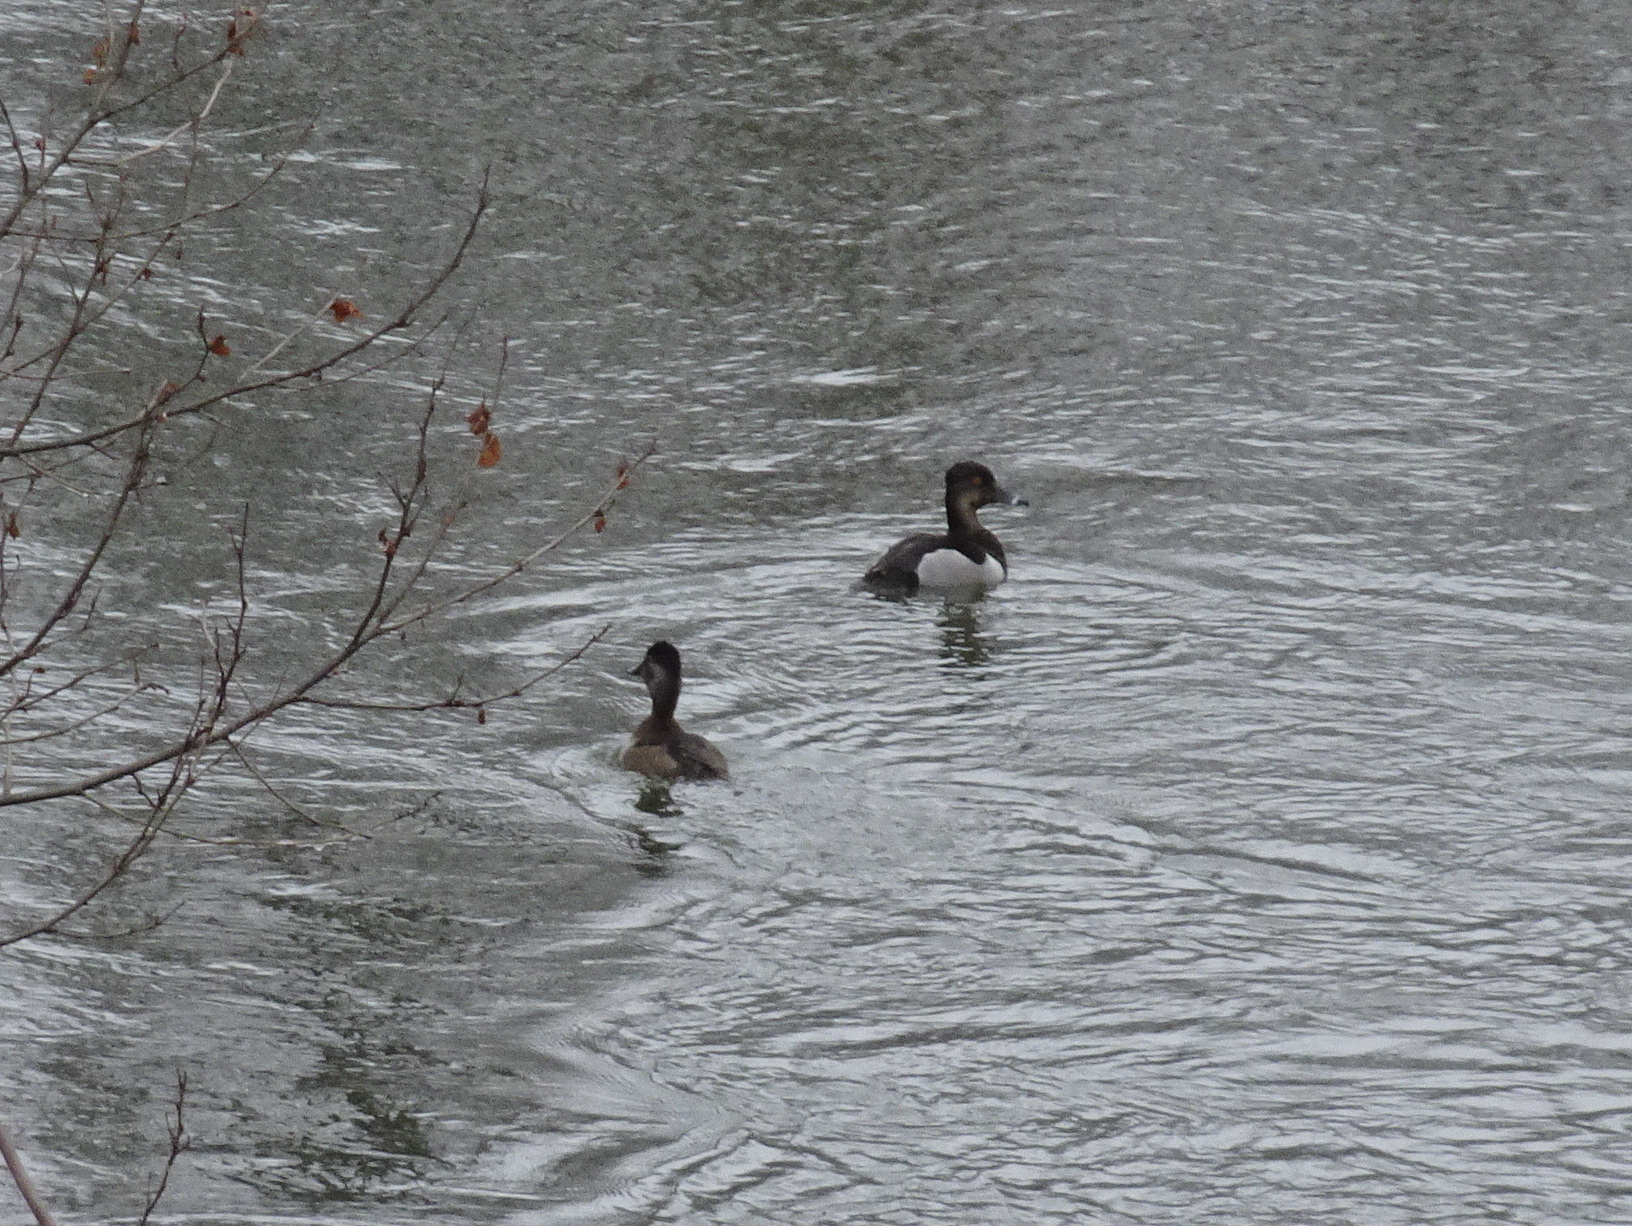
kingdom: Animalia
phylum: Chordata
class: Aves
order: Anseriformes
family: Anatidae
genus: Aythya
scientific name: Aythya collaris
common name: Ring-necked duck
